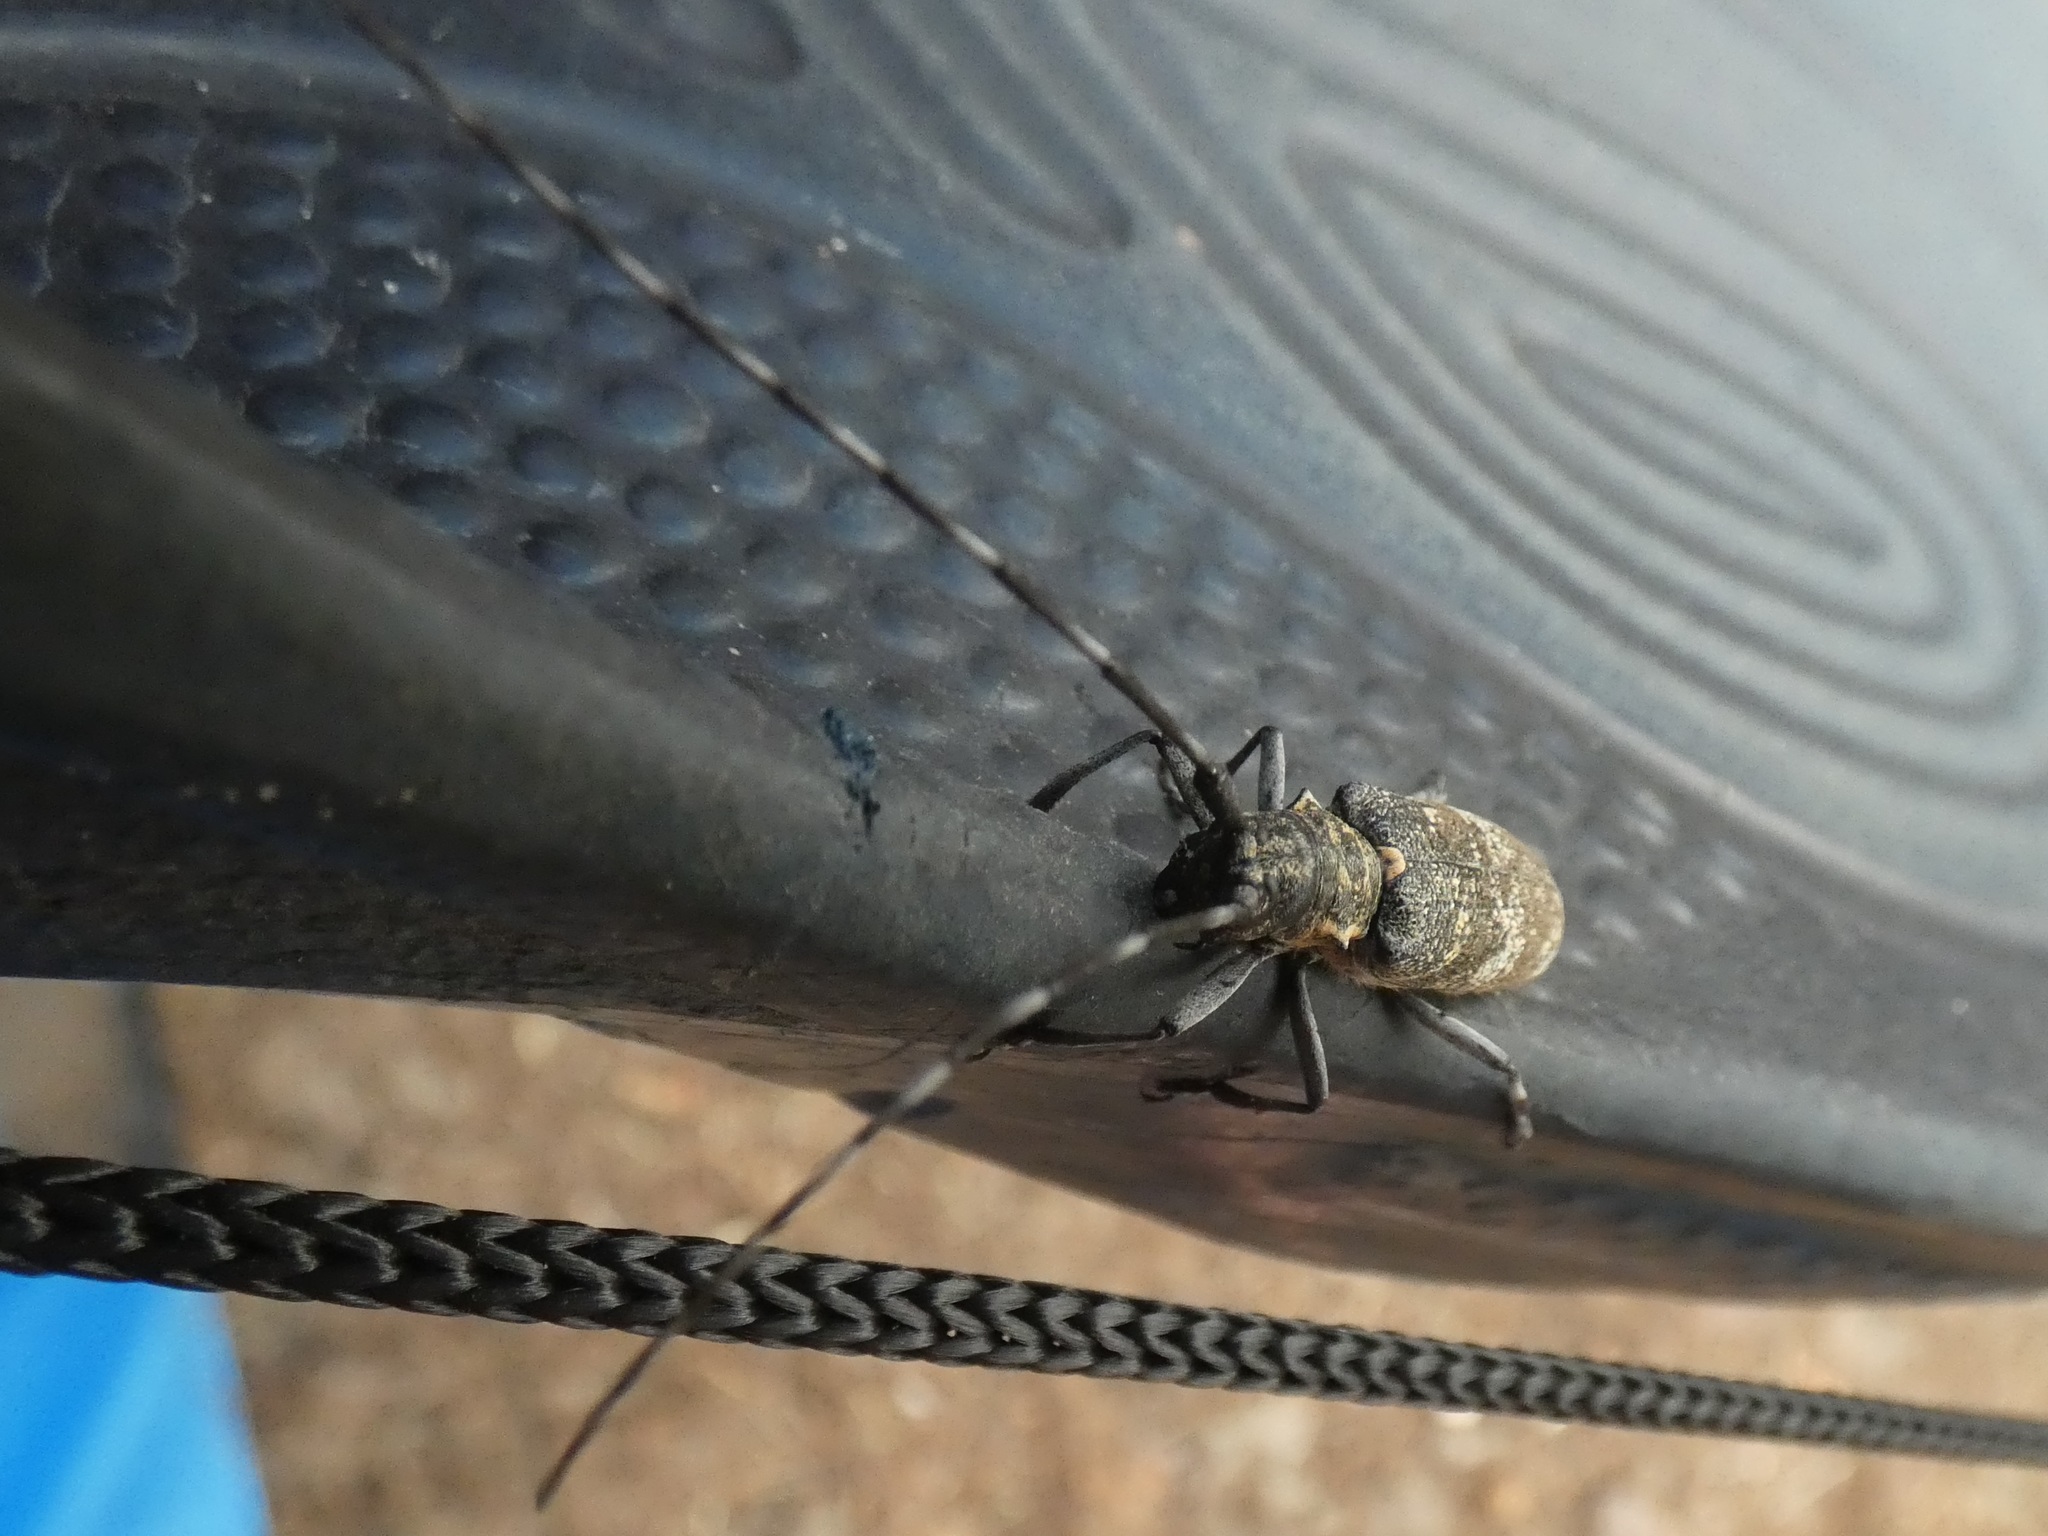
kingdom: Animalia
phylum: Arthropoda
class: Insecta
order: Coleoptera
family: Cerambycidae
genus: Monochamus
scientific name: Monochamus galloprovincialis
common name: Pine sawyer
